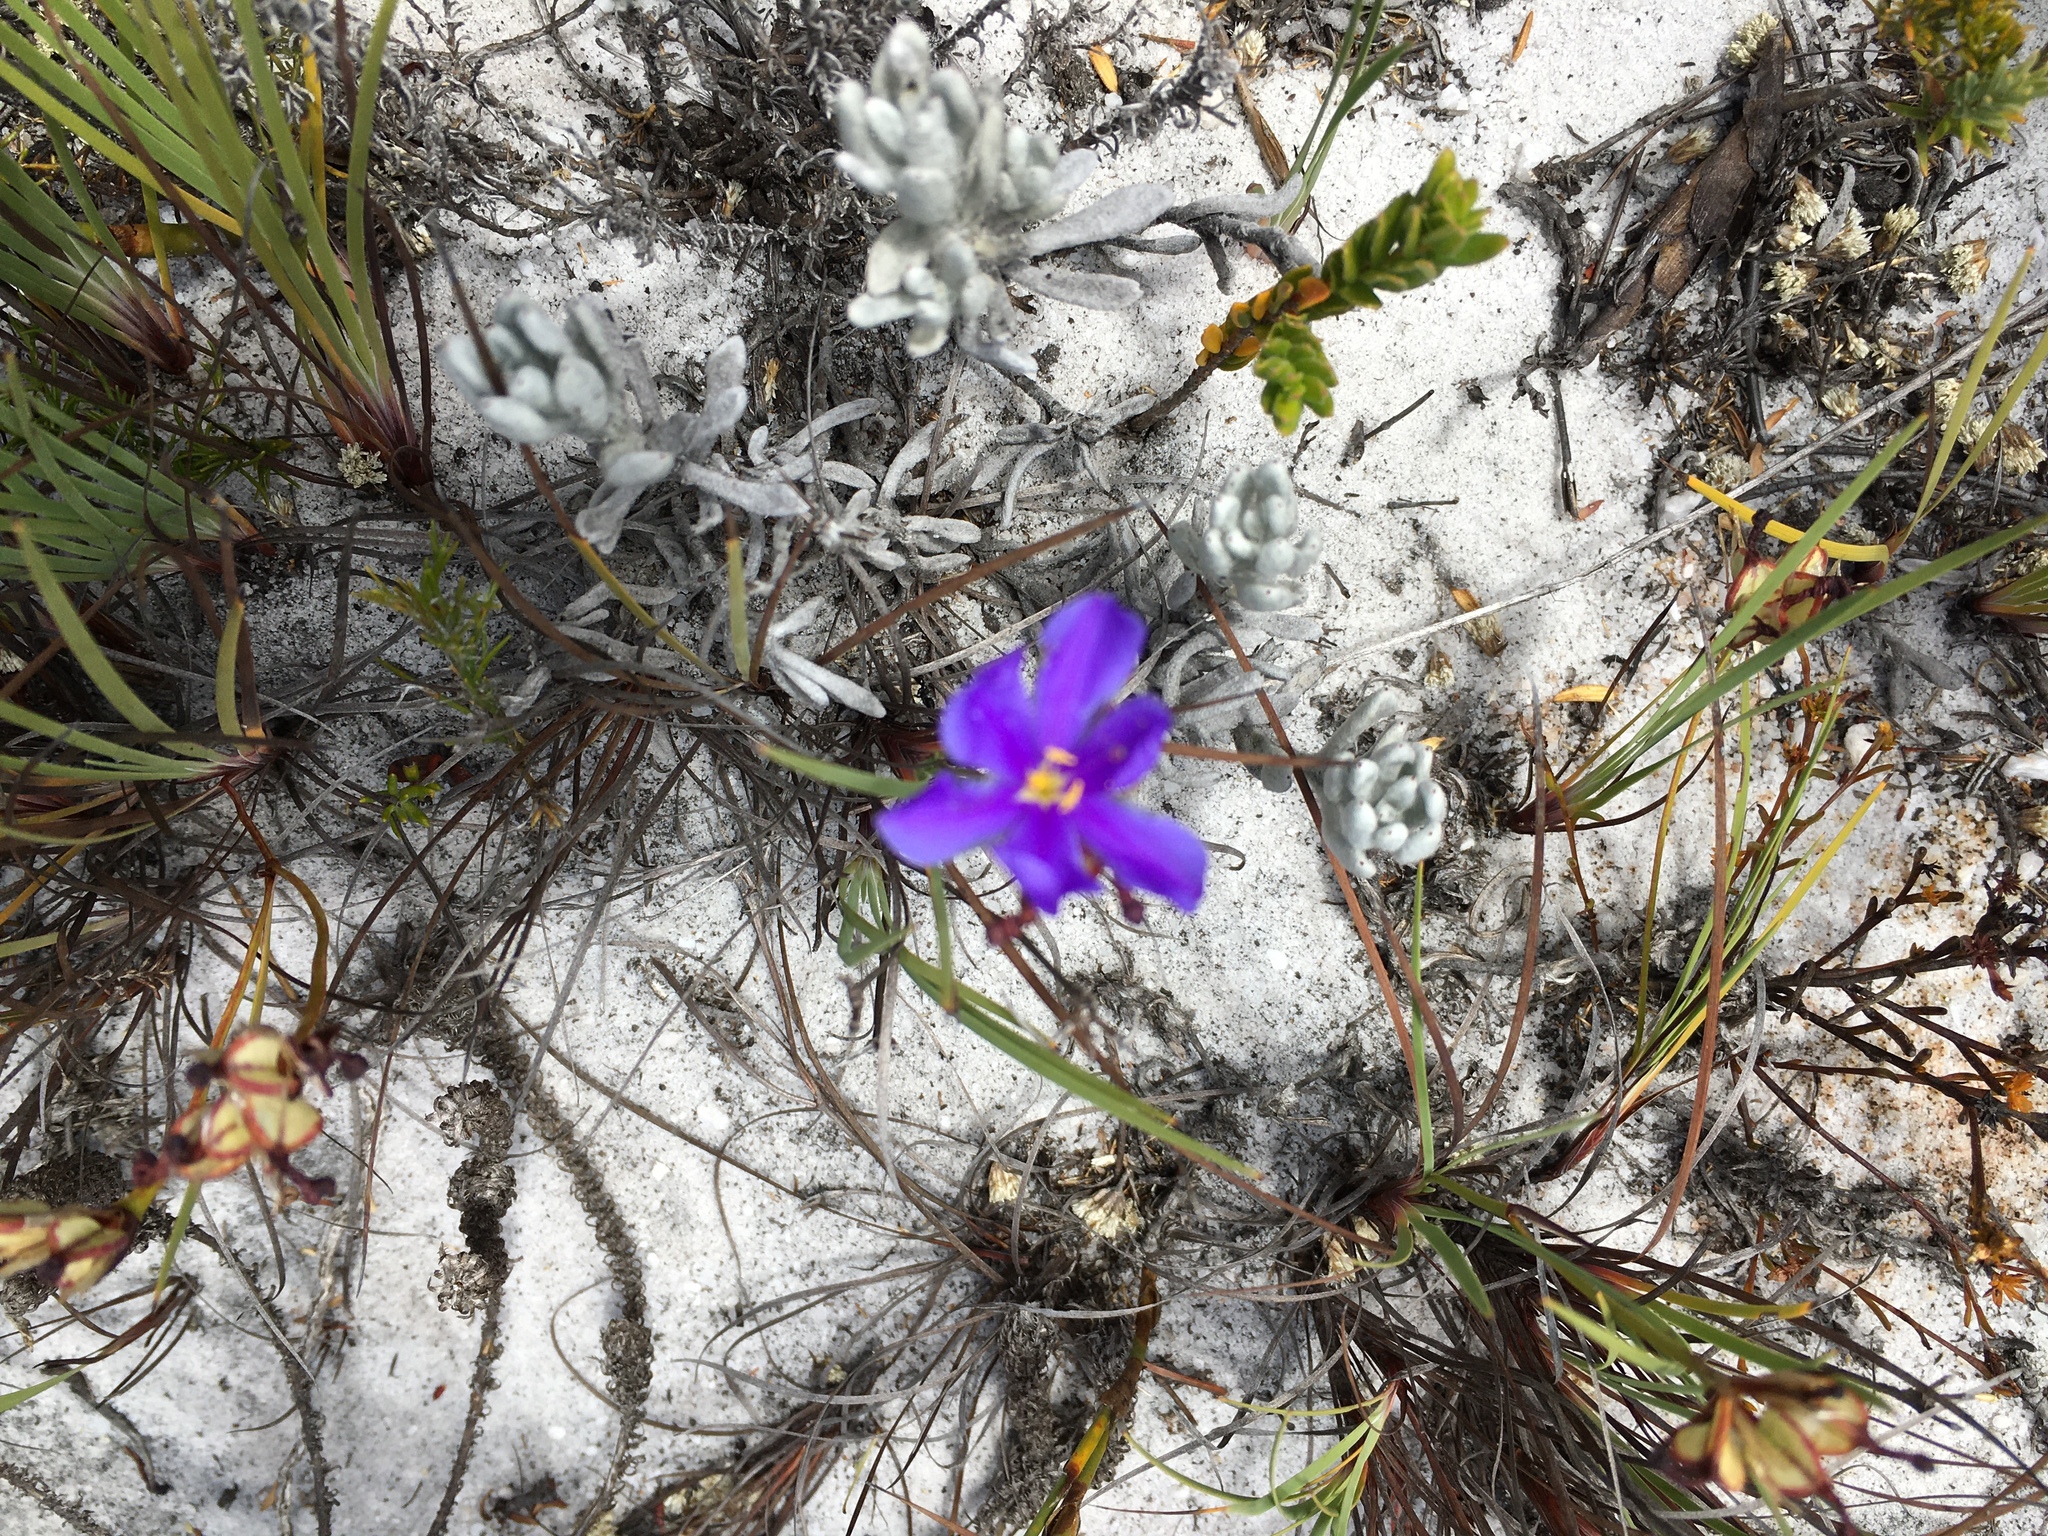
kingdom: Plantae
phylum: Tracheophyta
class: Liliopsida
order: Asparagales
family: Iridaceae
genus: Aristea
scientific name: Aristea glauca
